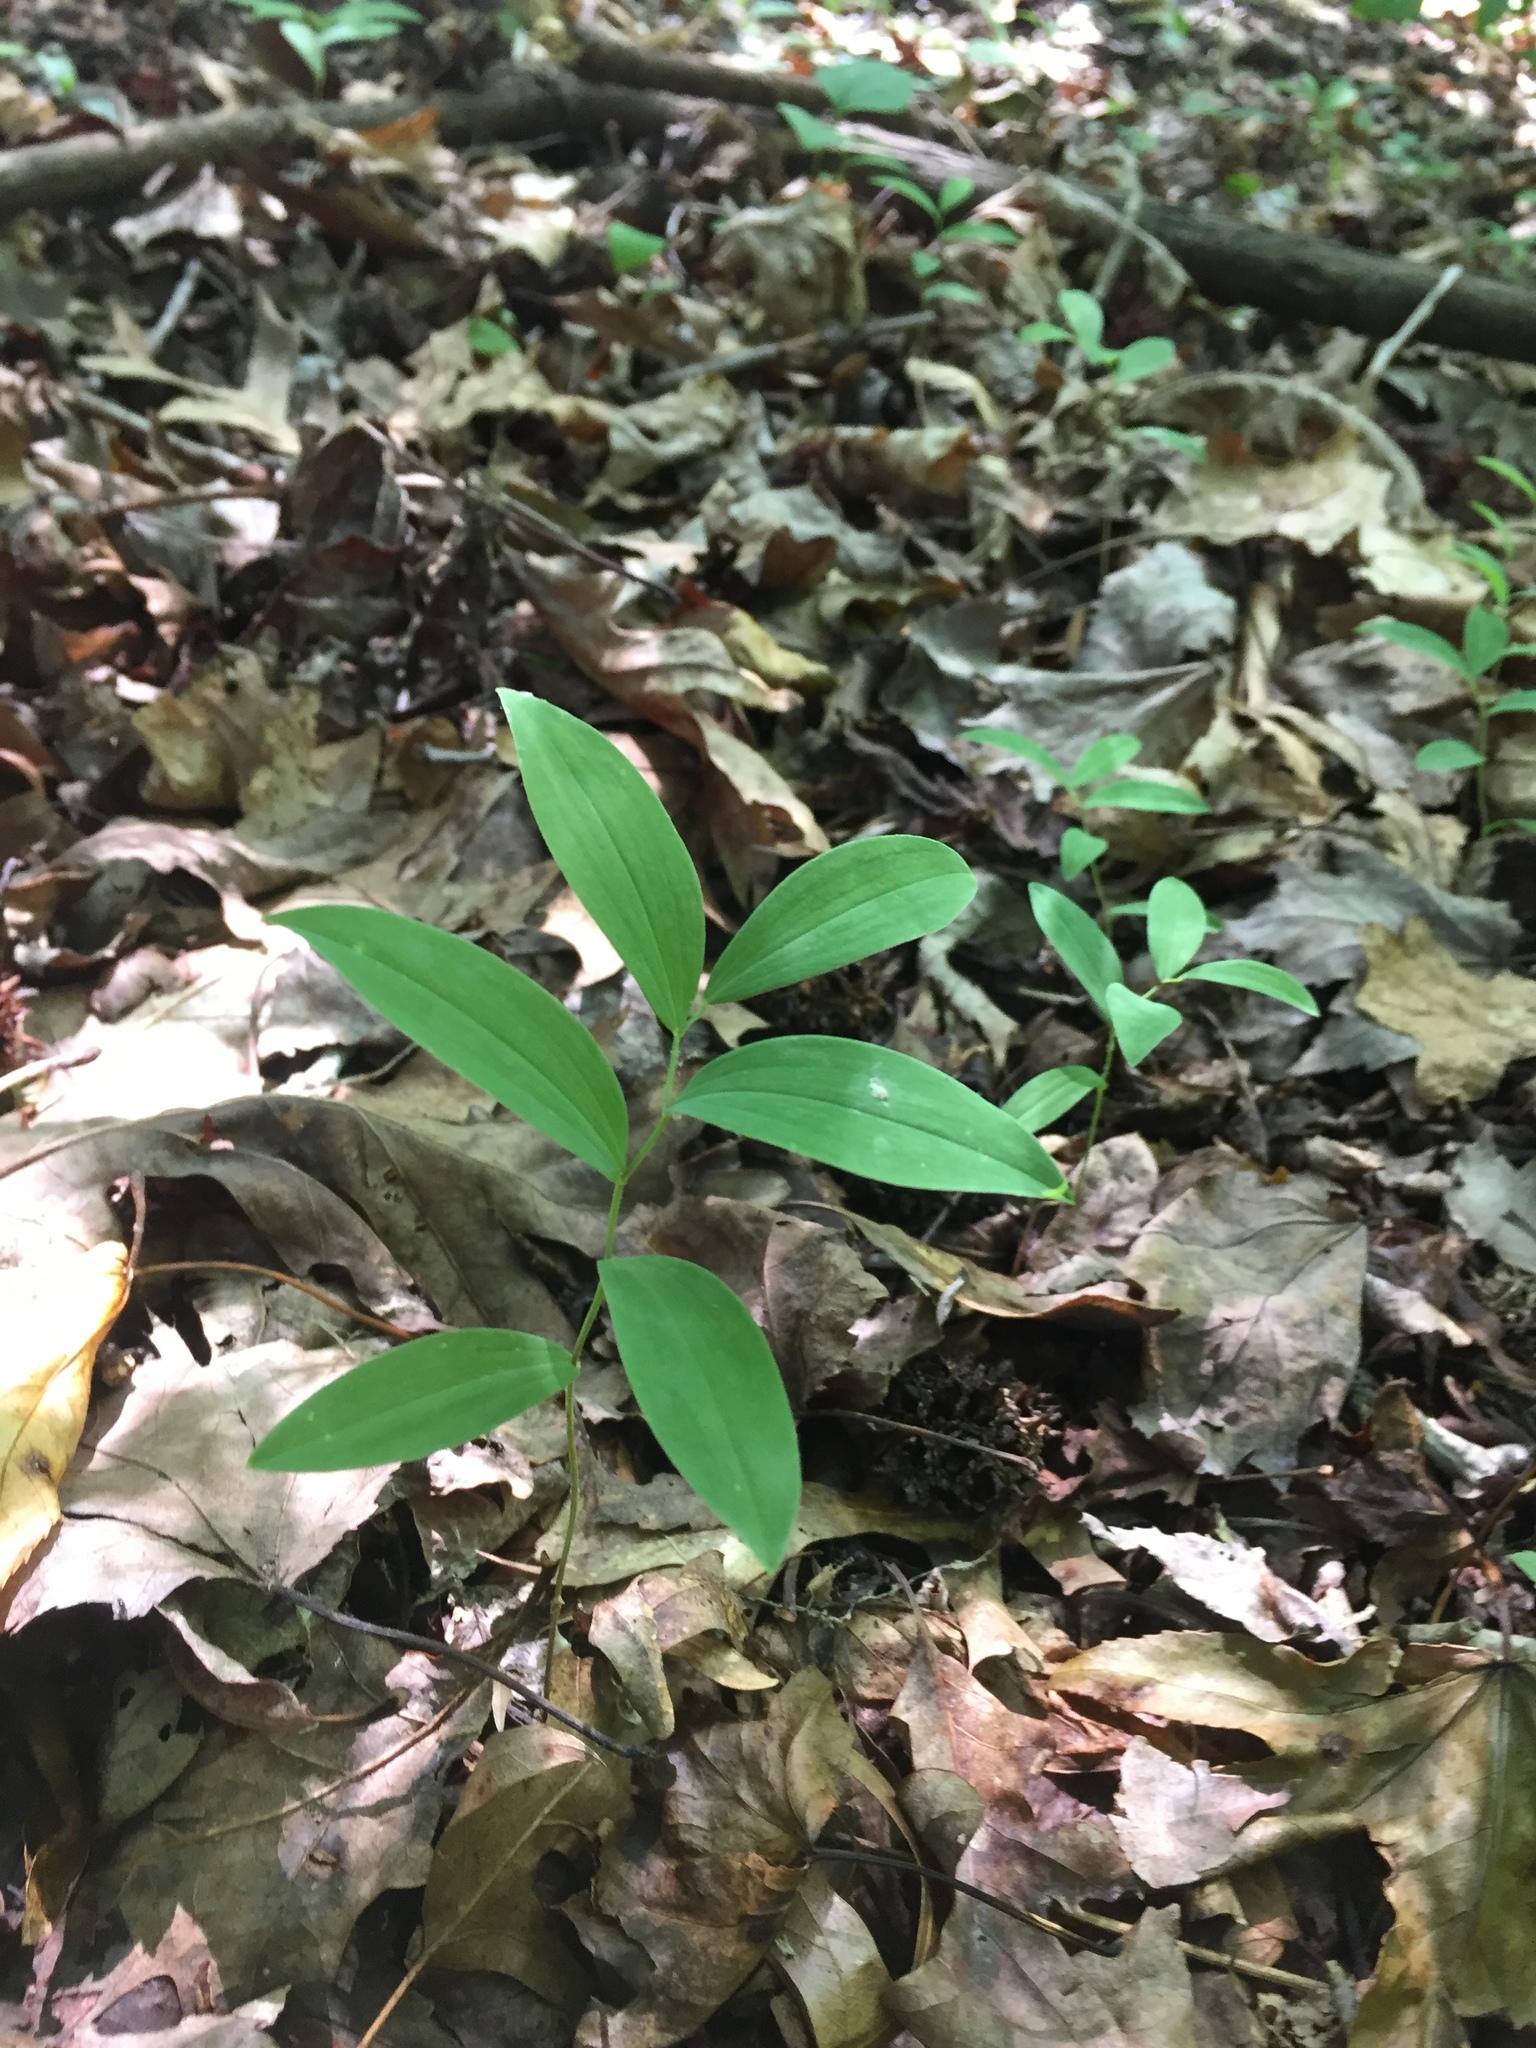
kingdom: Plantae
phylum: Tracheophyta
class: Liliopsida
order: Liliales
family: Colchicaceae
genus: Uvularia
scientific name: Uvularia sessilifolia
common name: Straw-lily
